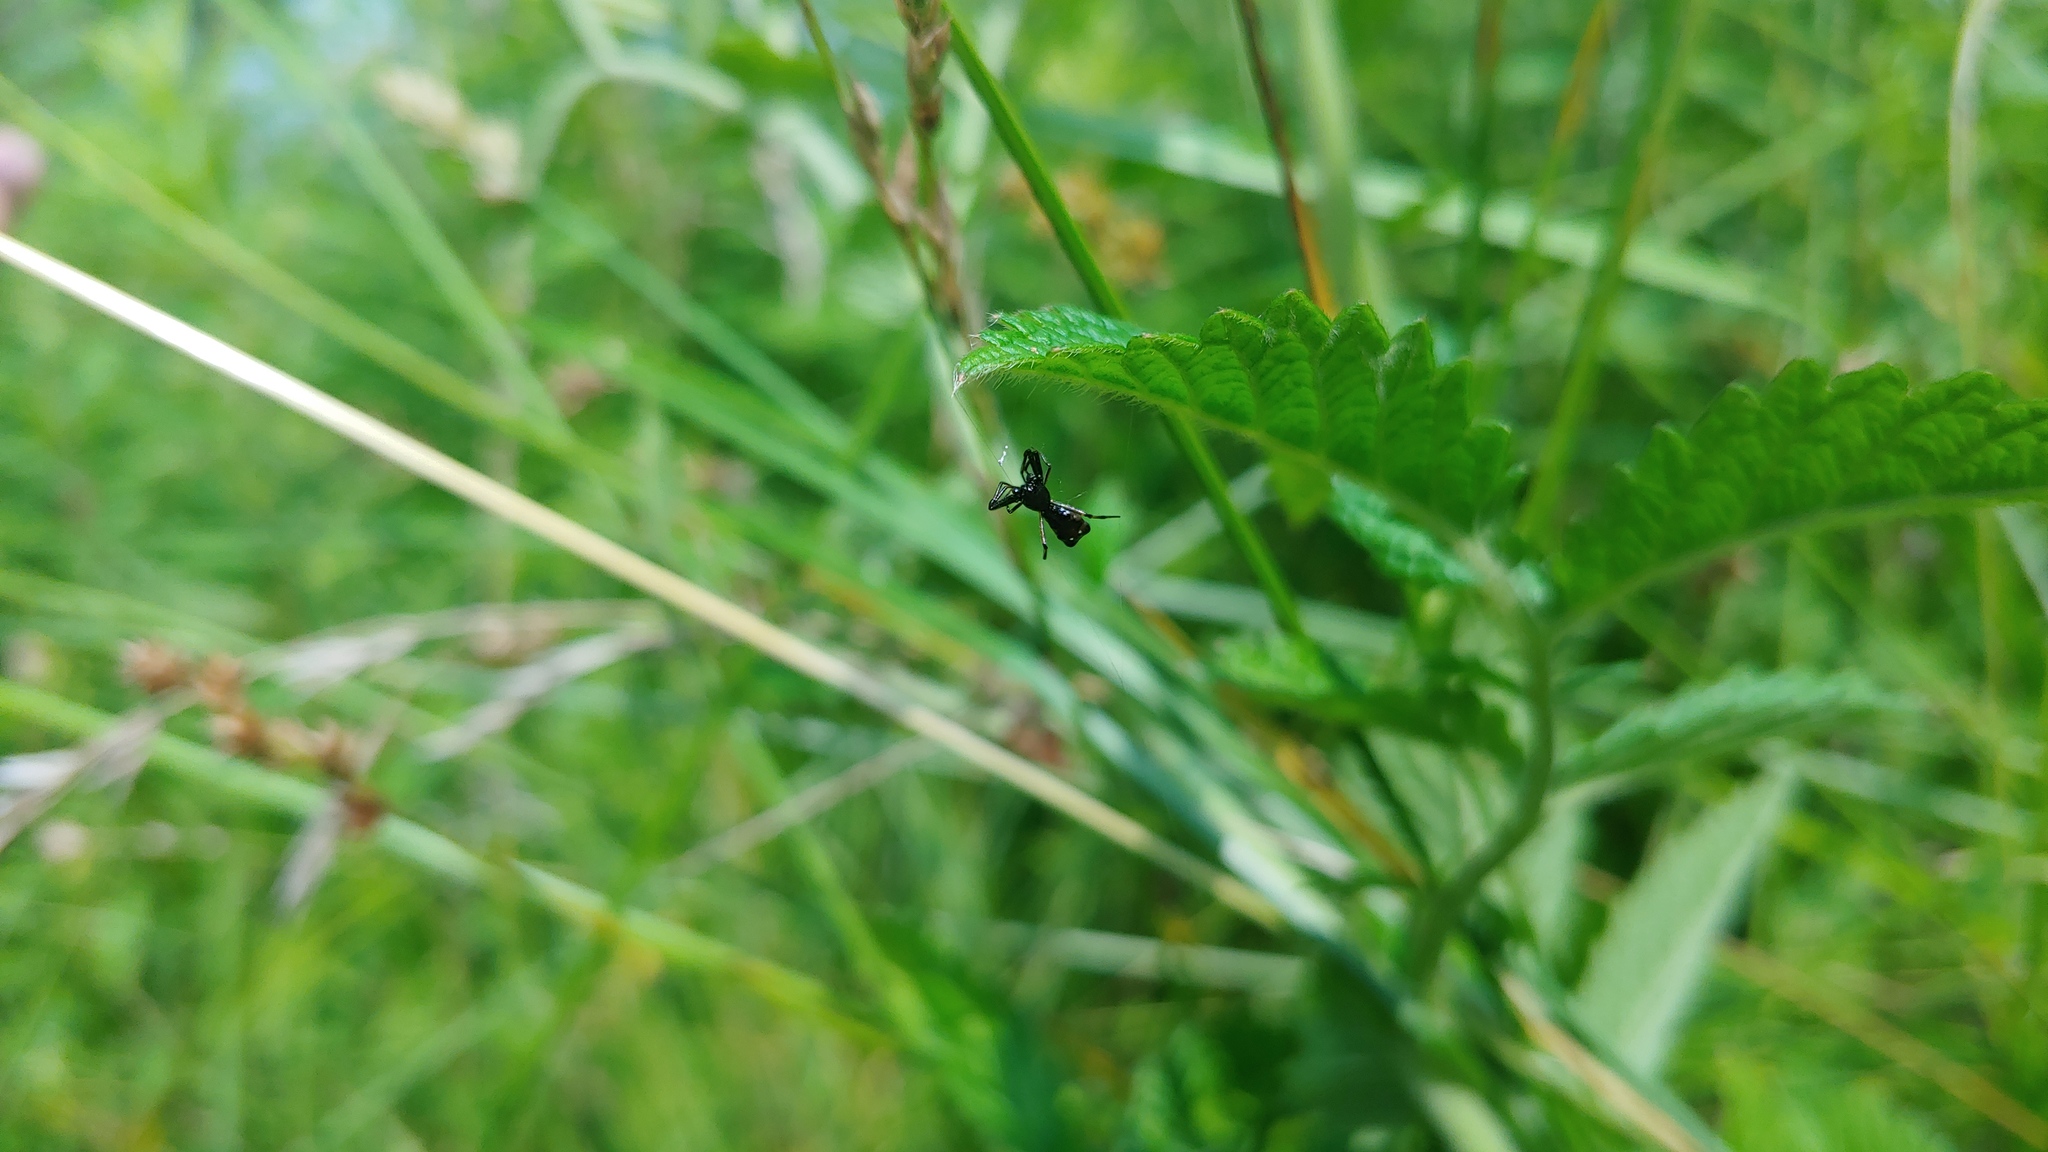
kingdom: Animalia
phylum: Arthropoda
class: Arachnida
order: Araneae
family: Araneidae
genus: Micrathena
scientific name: Micrathena sagittata
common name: Orb weavers
